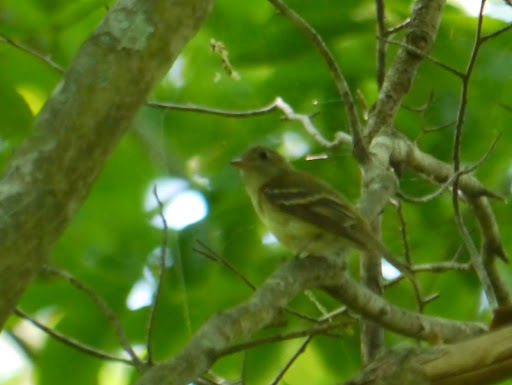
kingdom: Animalia
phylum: Chordata
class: Aves
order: Passeriformes
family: Tyrannidae
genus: Empidonax
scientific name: Empidonax virescens
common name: Acadian flycatcher
